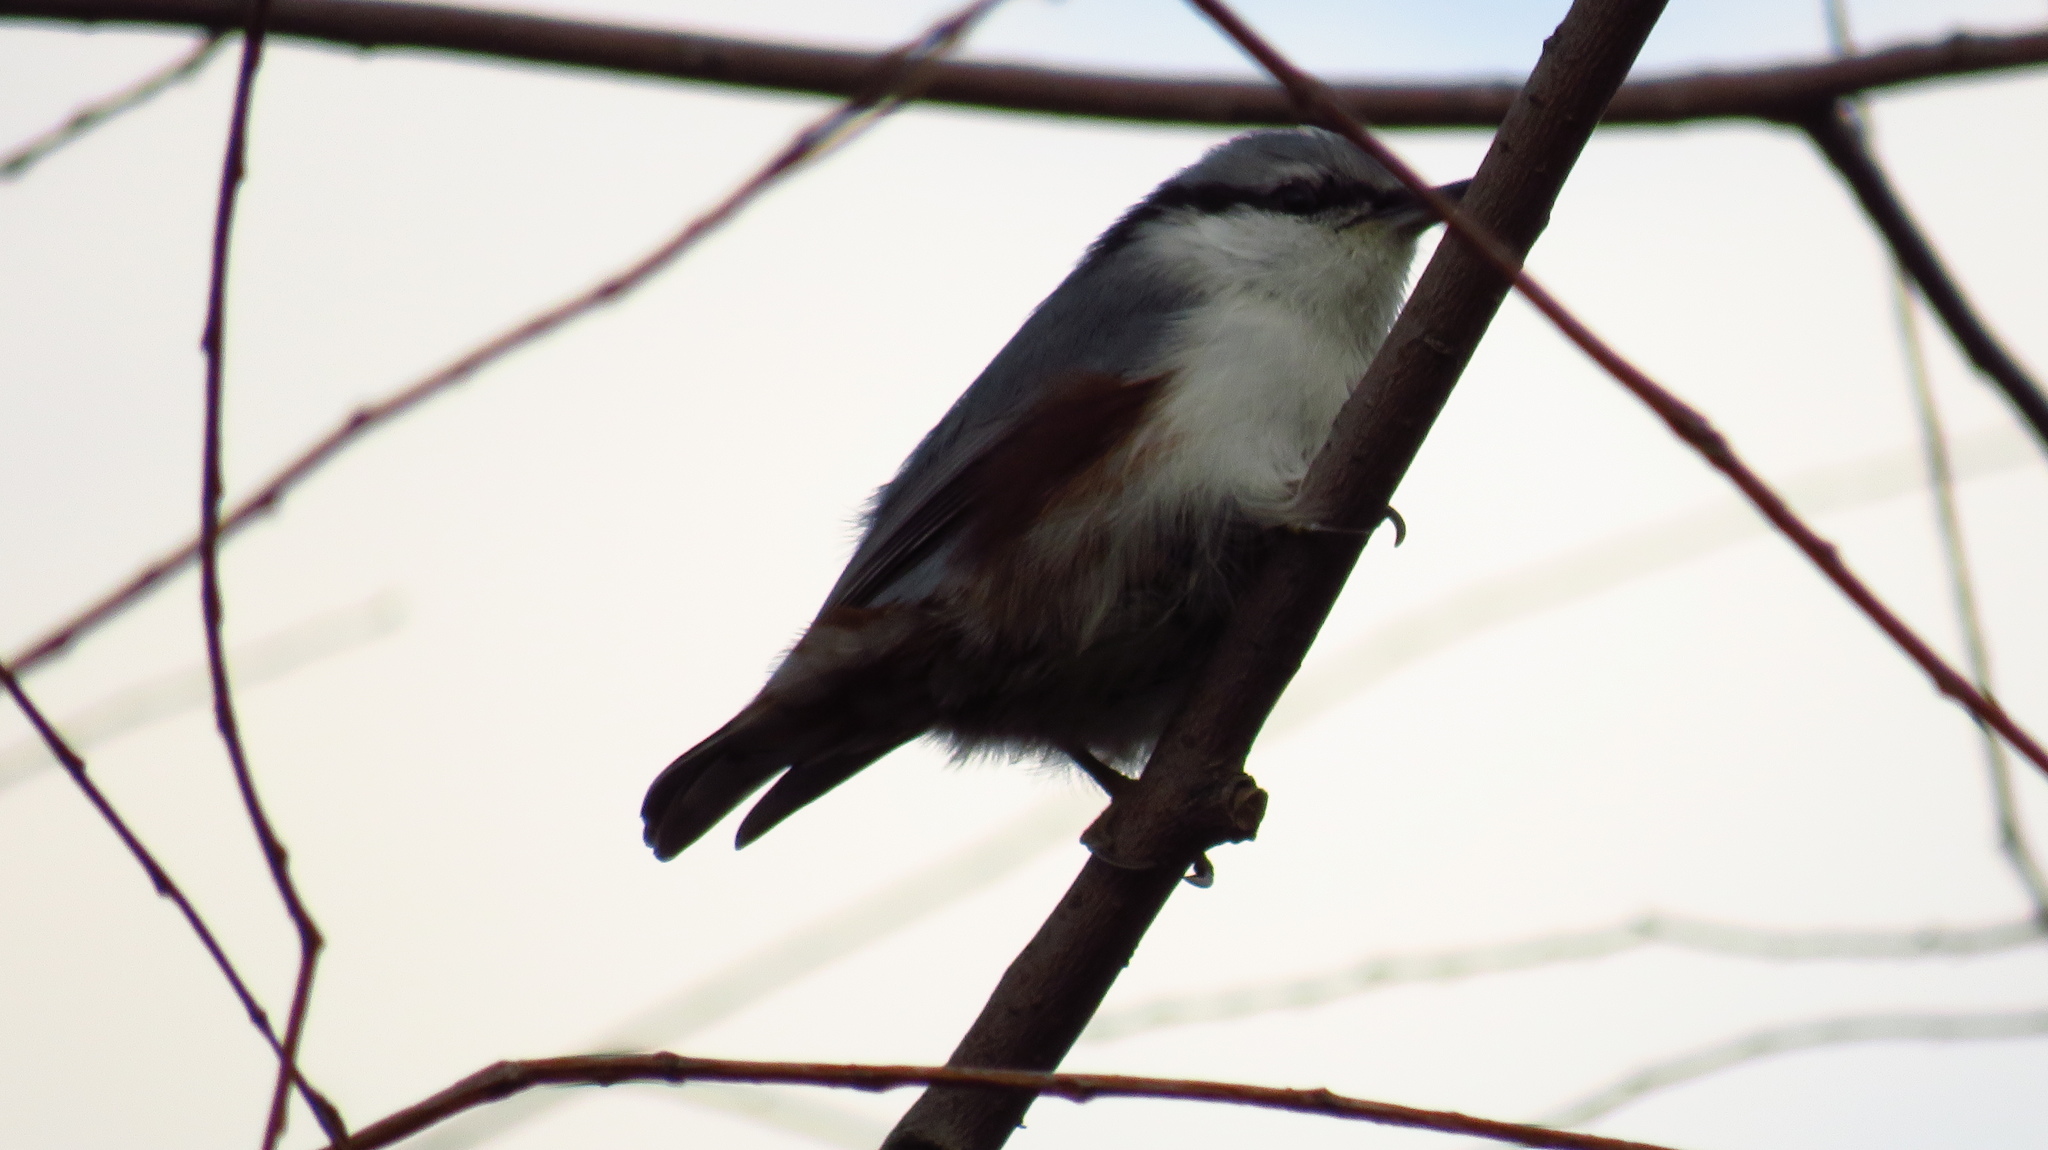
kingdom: Animalia
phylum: Chordata
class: Aves
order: Passeriformes
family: Sittidae
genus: Sitta
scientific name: Sitta europaea
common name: Eurasian nuthatch
